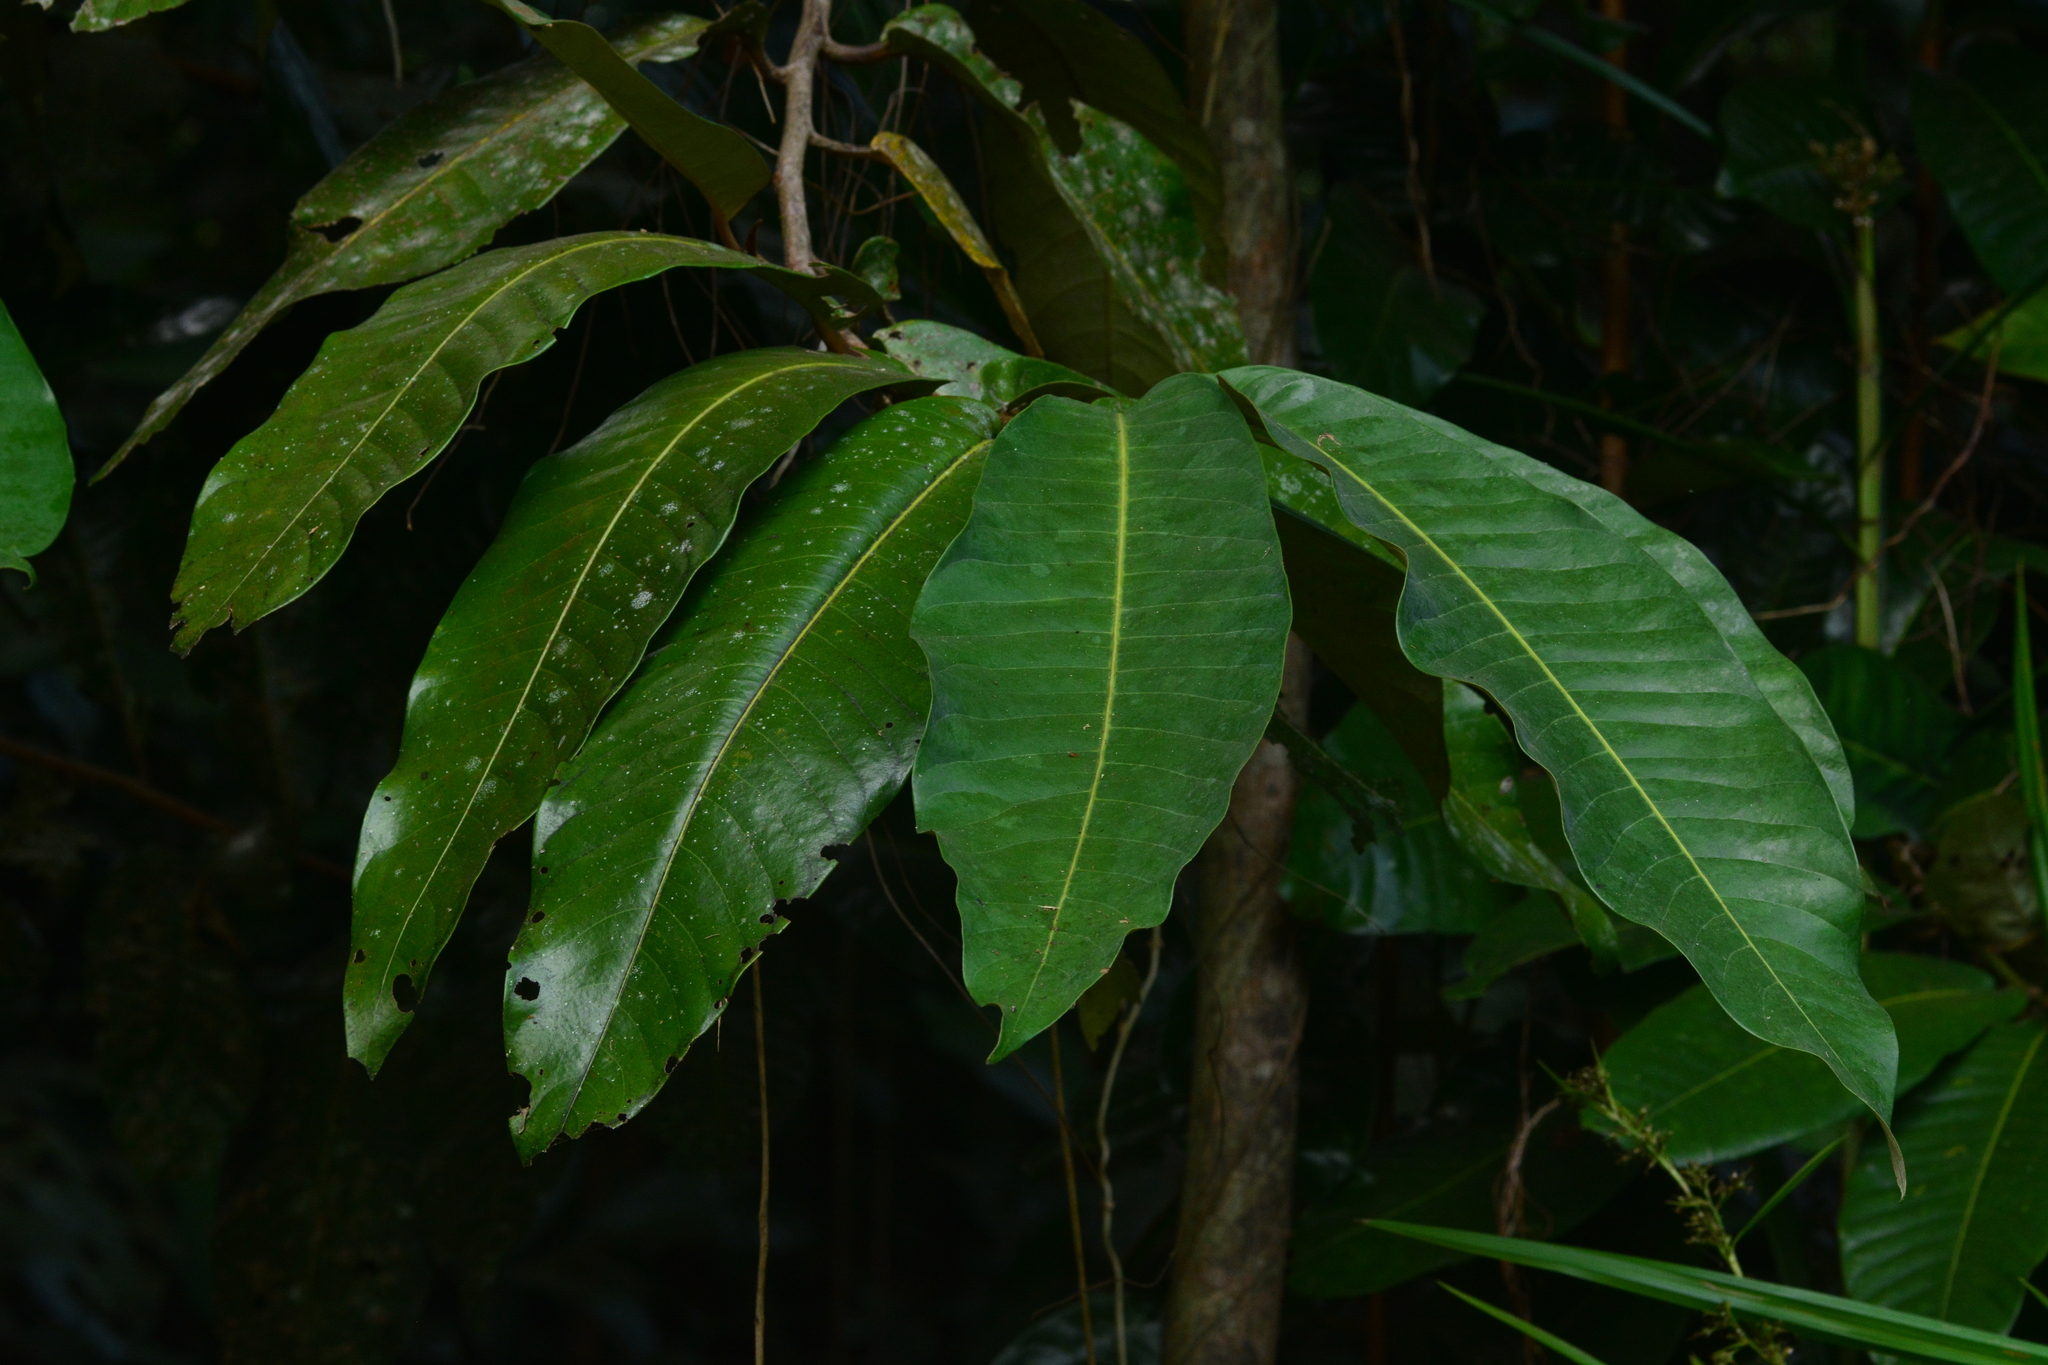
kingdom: Plantae
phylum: Tracheophyta
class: Magnoliopsida
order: Magnoliales
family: Myristicaceae
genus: Myristica
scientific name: Myristica fatua
